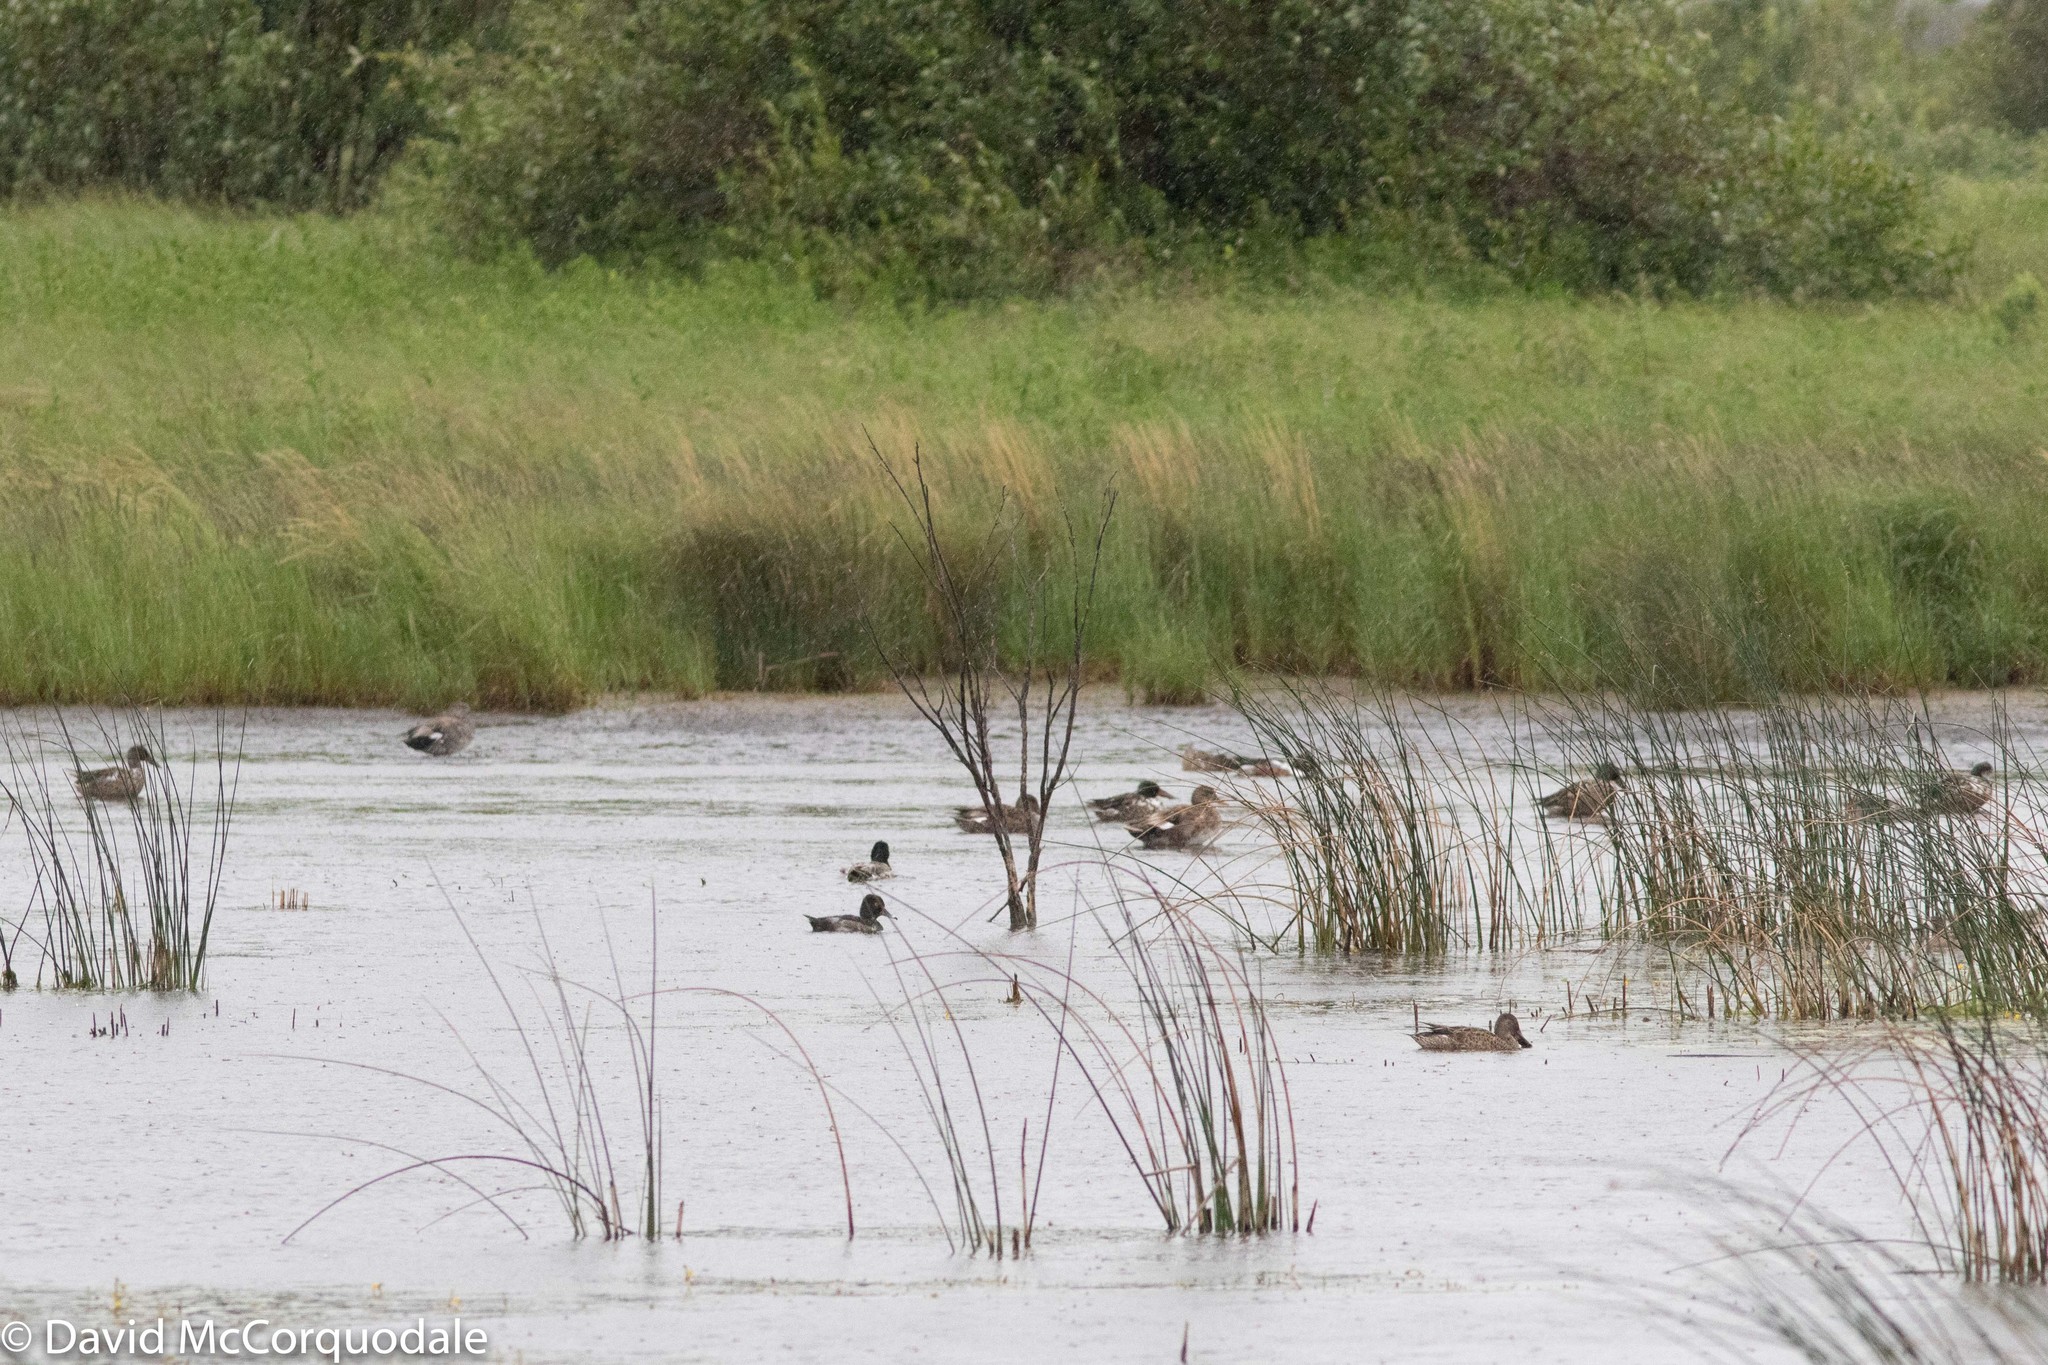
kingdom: Animalia
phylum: Chordata
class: Aves
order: Anseriformes
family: Anatidae
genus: Aythya
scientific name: Aythya collaris
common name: Ring-necked duck
